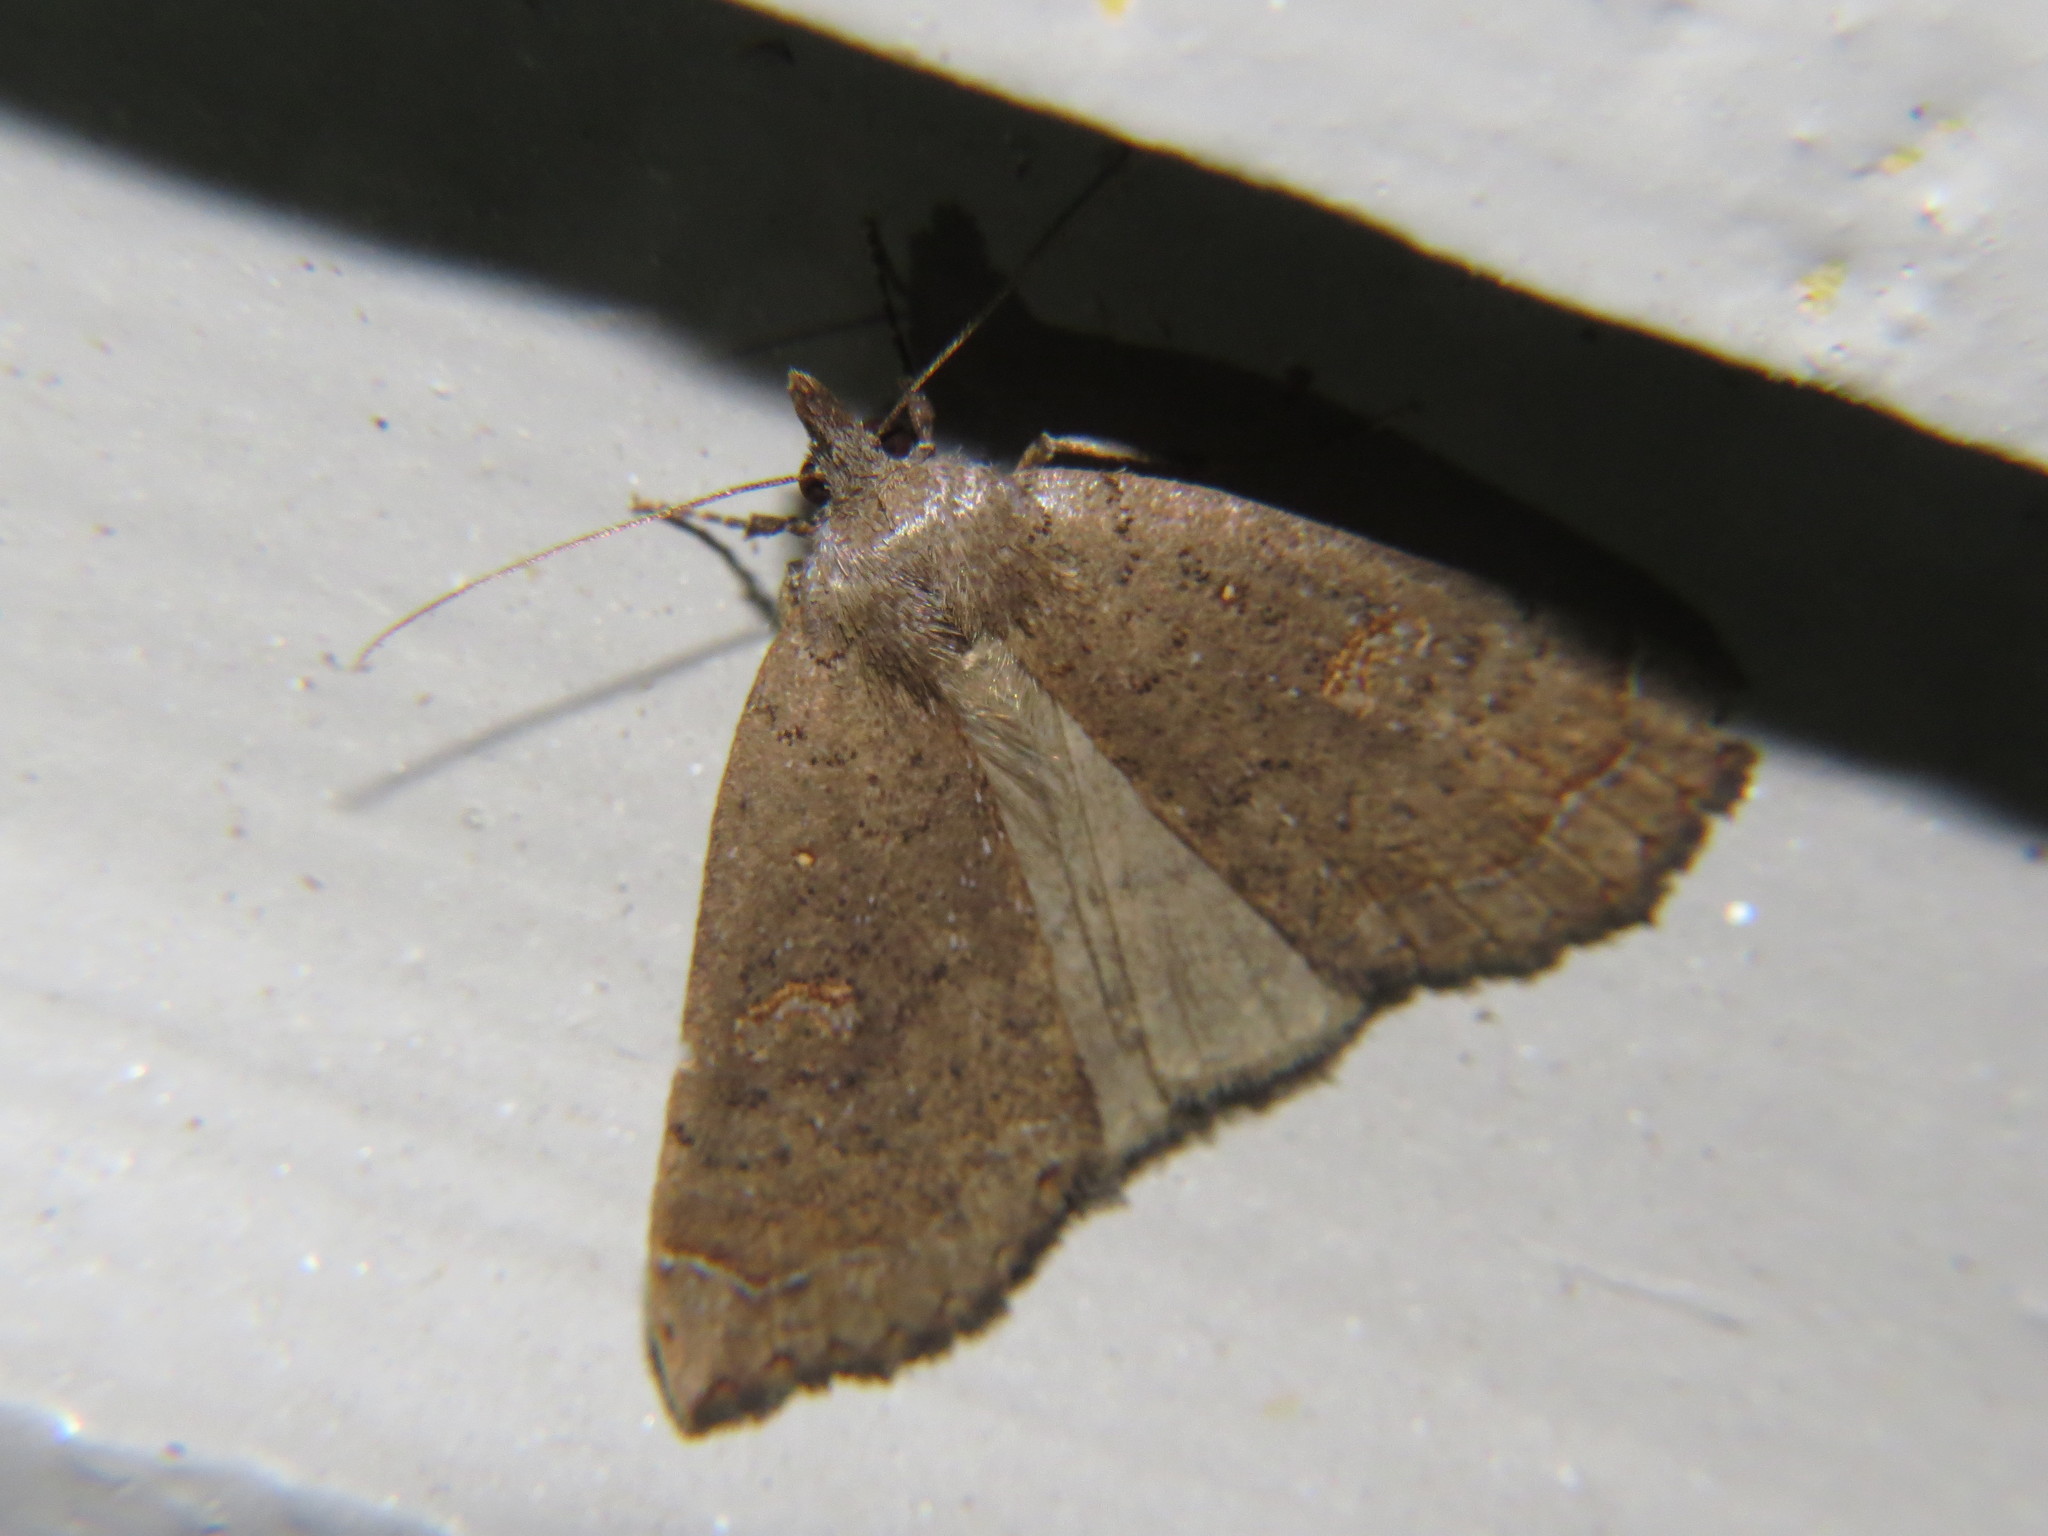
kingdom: Animalia
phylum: Arthropoda
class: Insecta
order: Lepidoptera
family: Erebidae
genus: Rhapsa
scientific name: Rhapsa scotosialis
